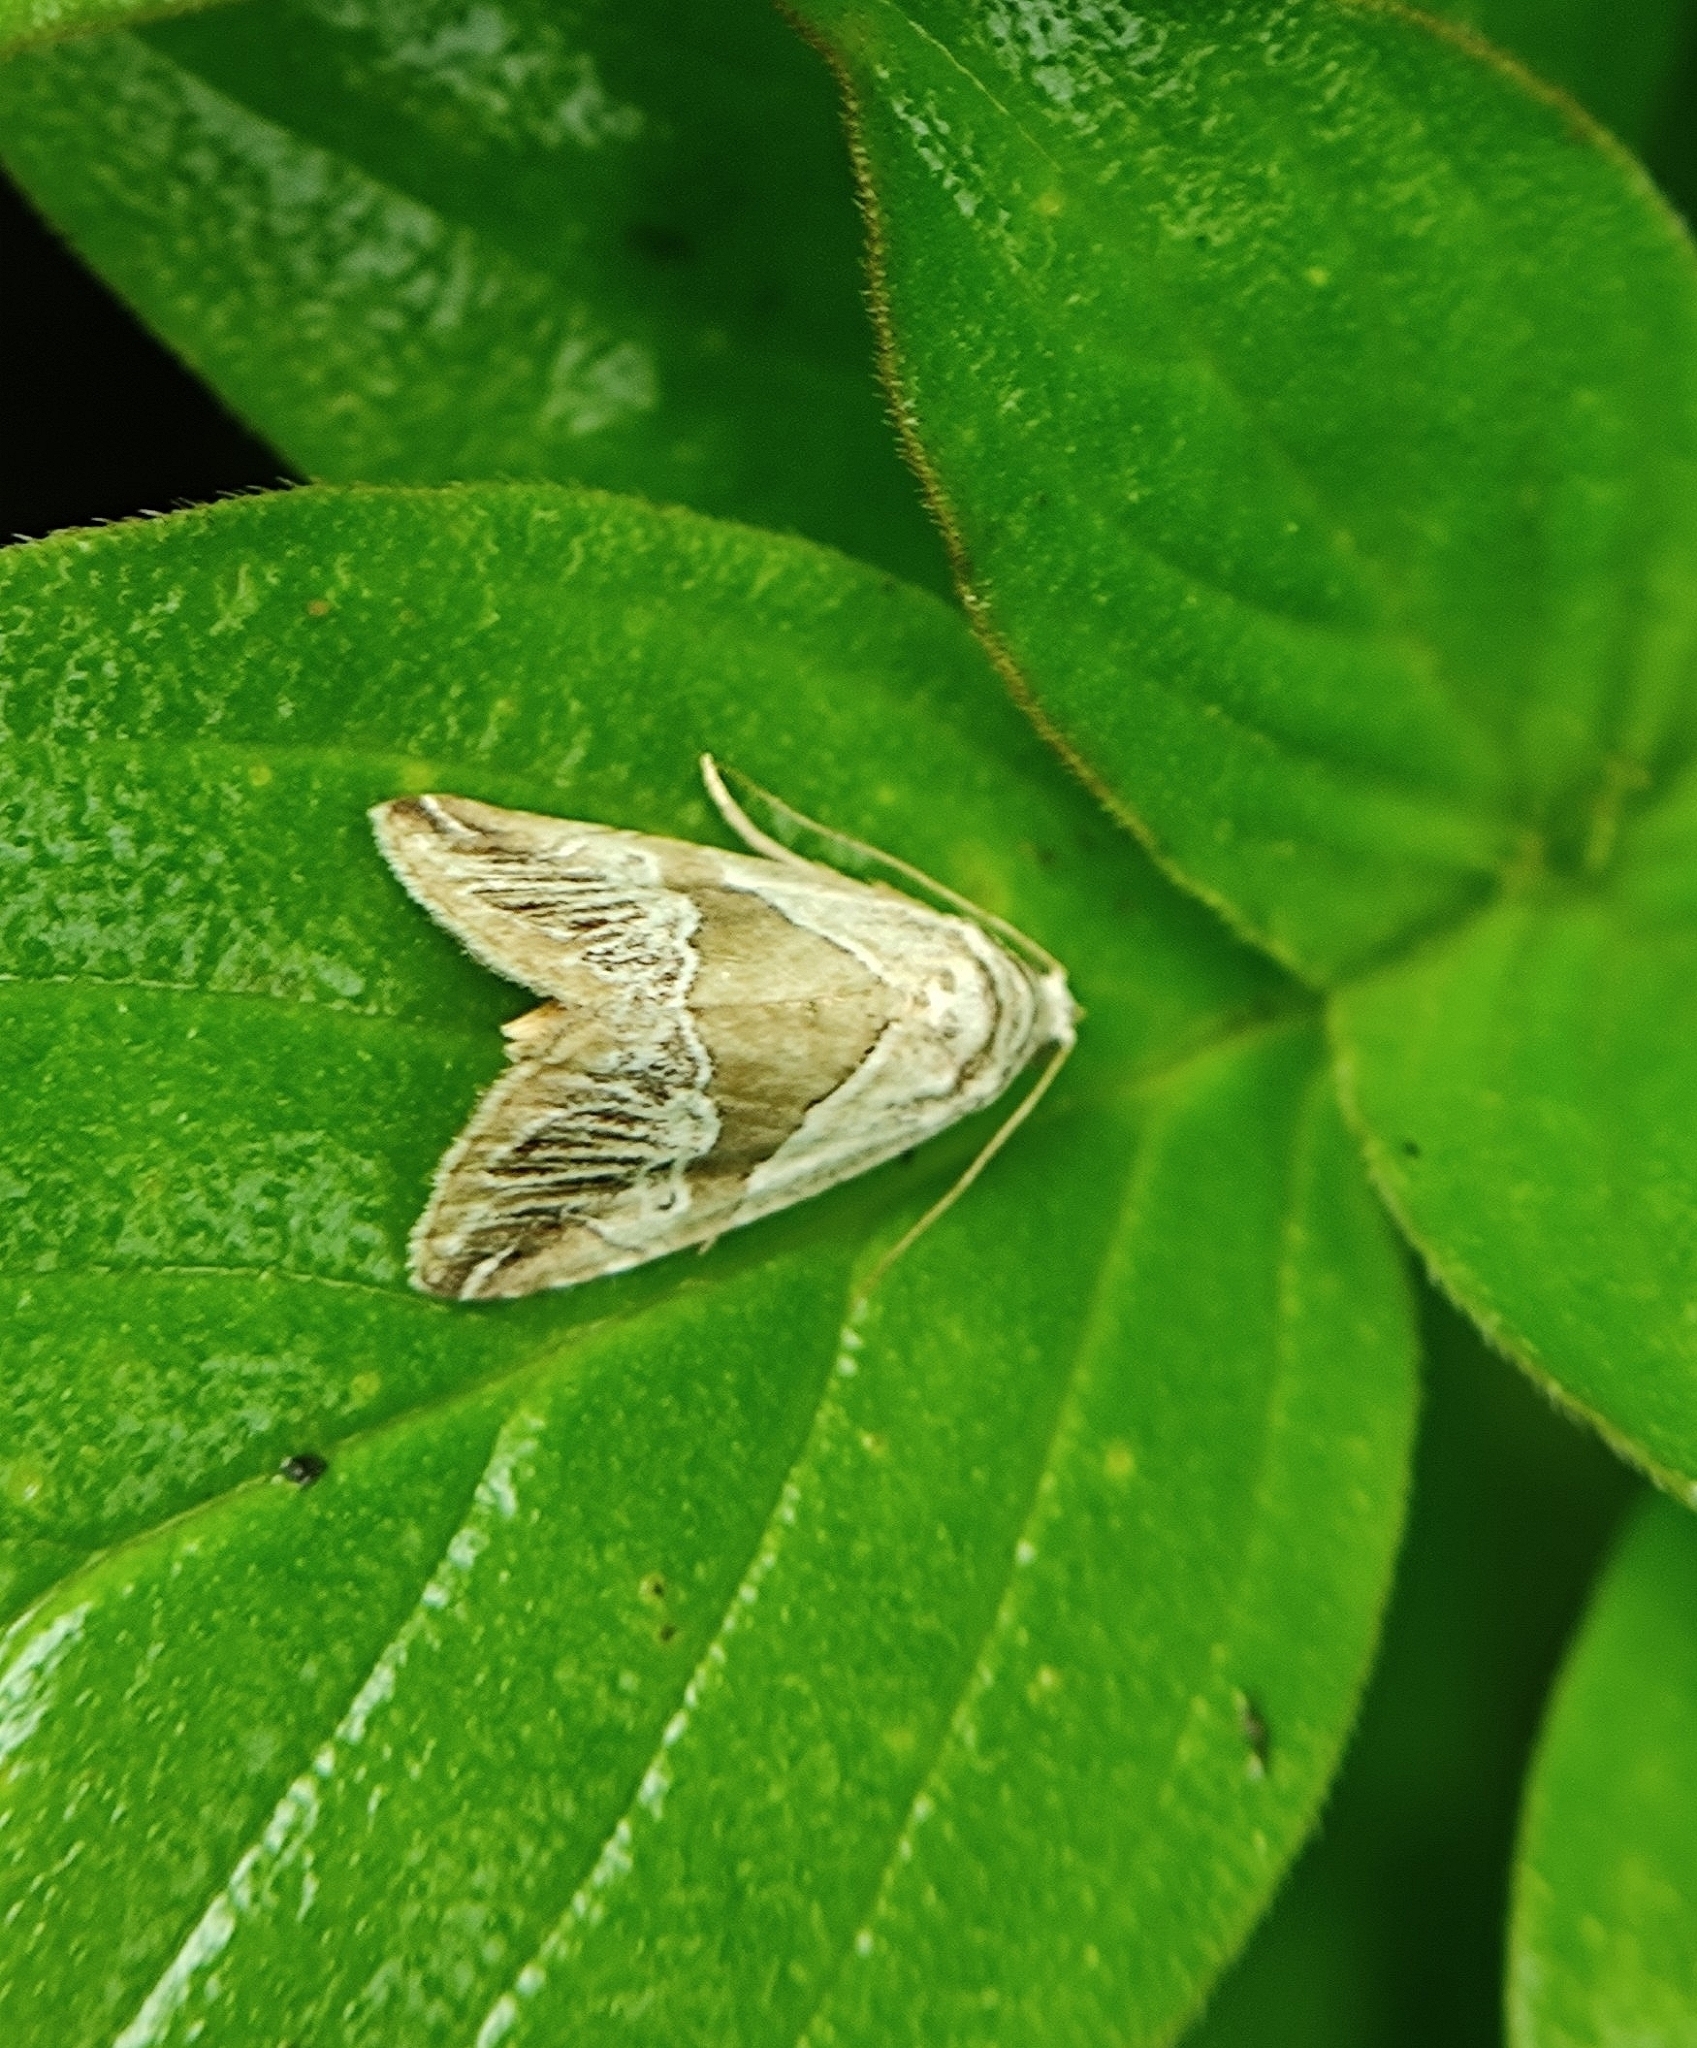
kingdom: Animalia
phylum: Arthropoda
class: Insecta
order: Lepidoptera
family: Noctuidae
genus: Maliattha
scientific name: Maliattha separata
